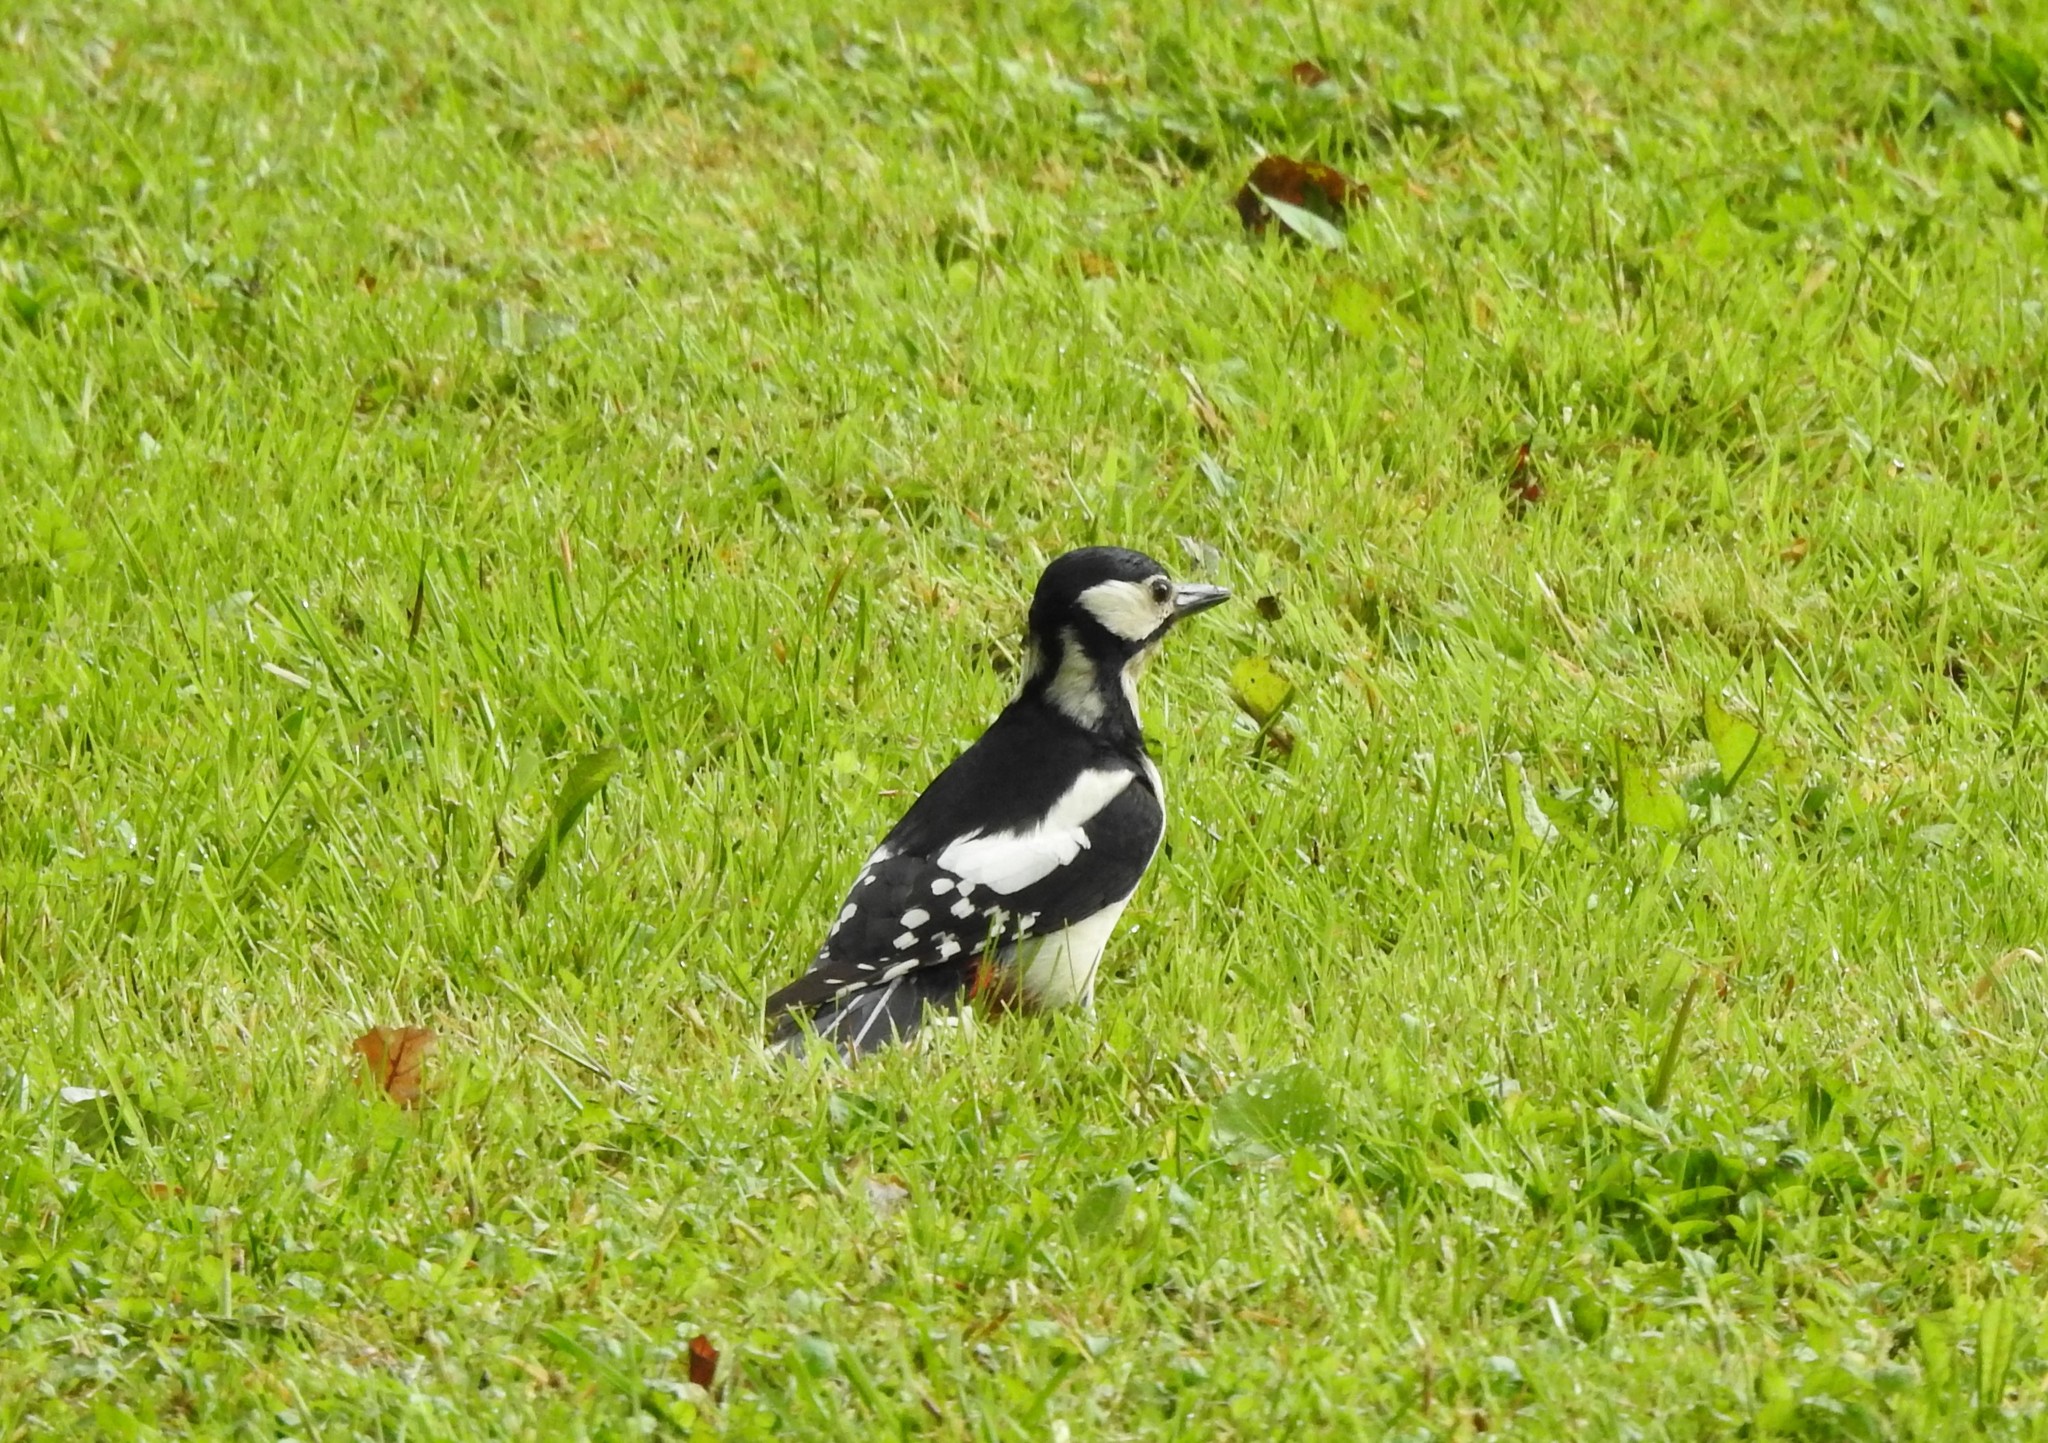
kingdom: Animalia
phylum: Chordata
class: Aves
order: Piciformes
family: Picidae
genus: Dendrocopos
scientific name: Dendrocopos major
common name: Great spotted woodpecker
